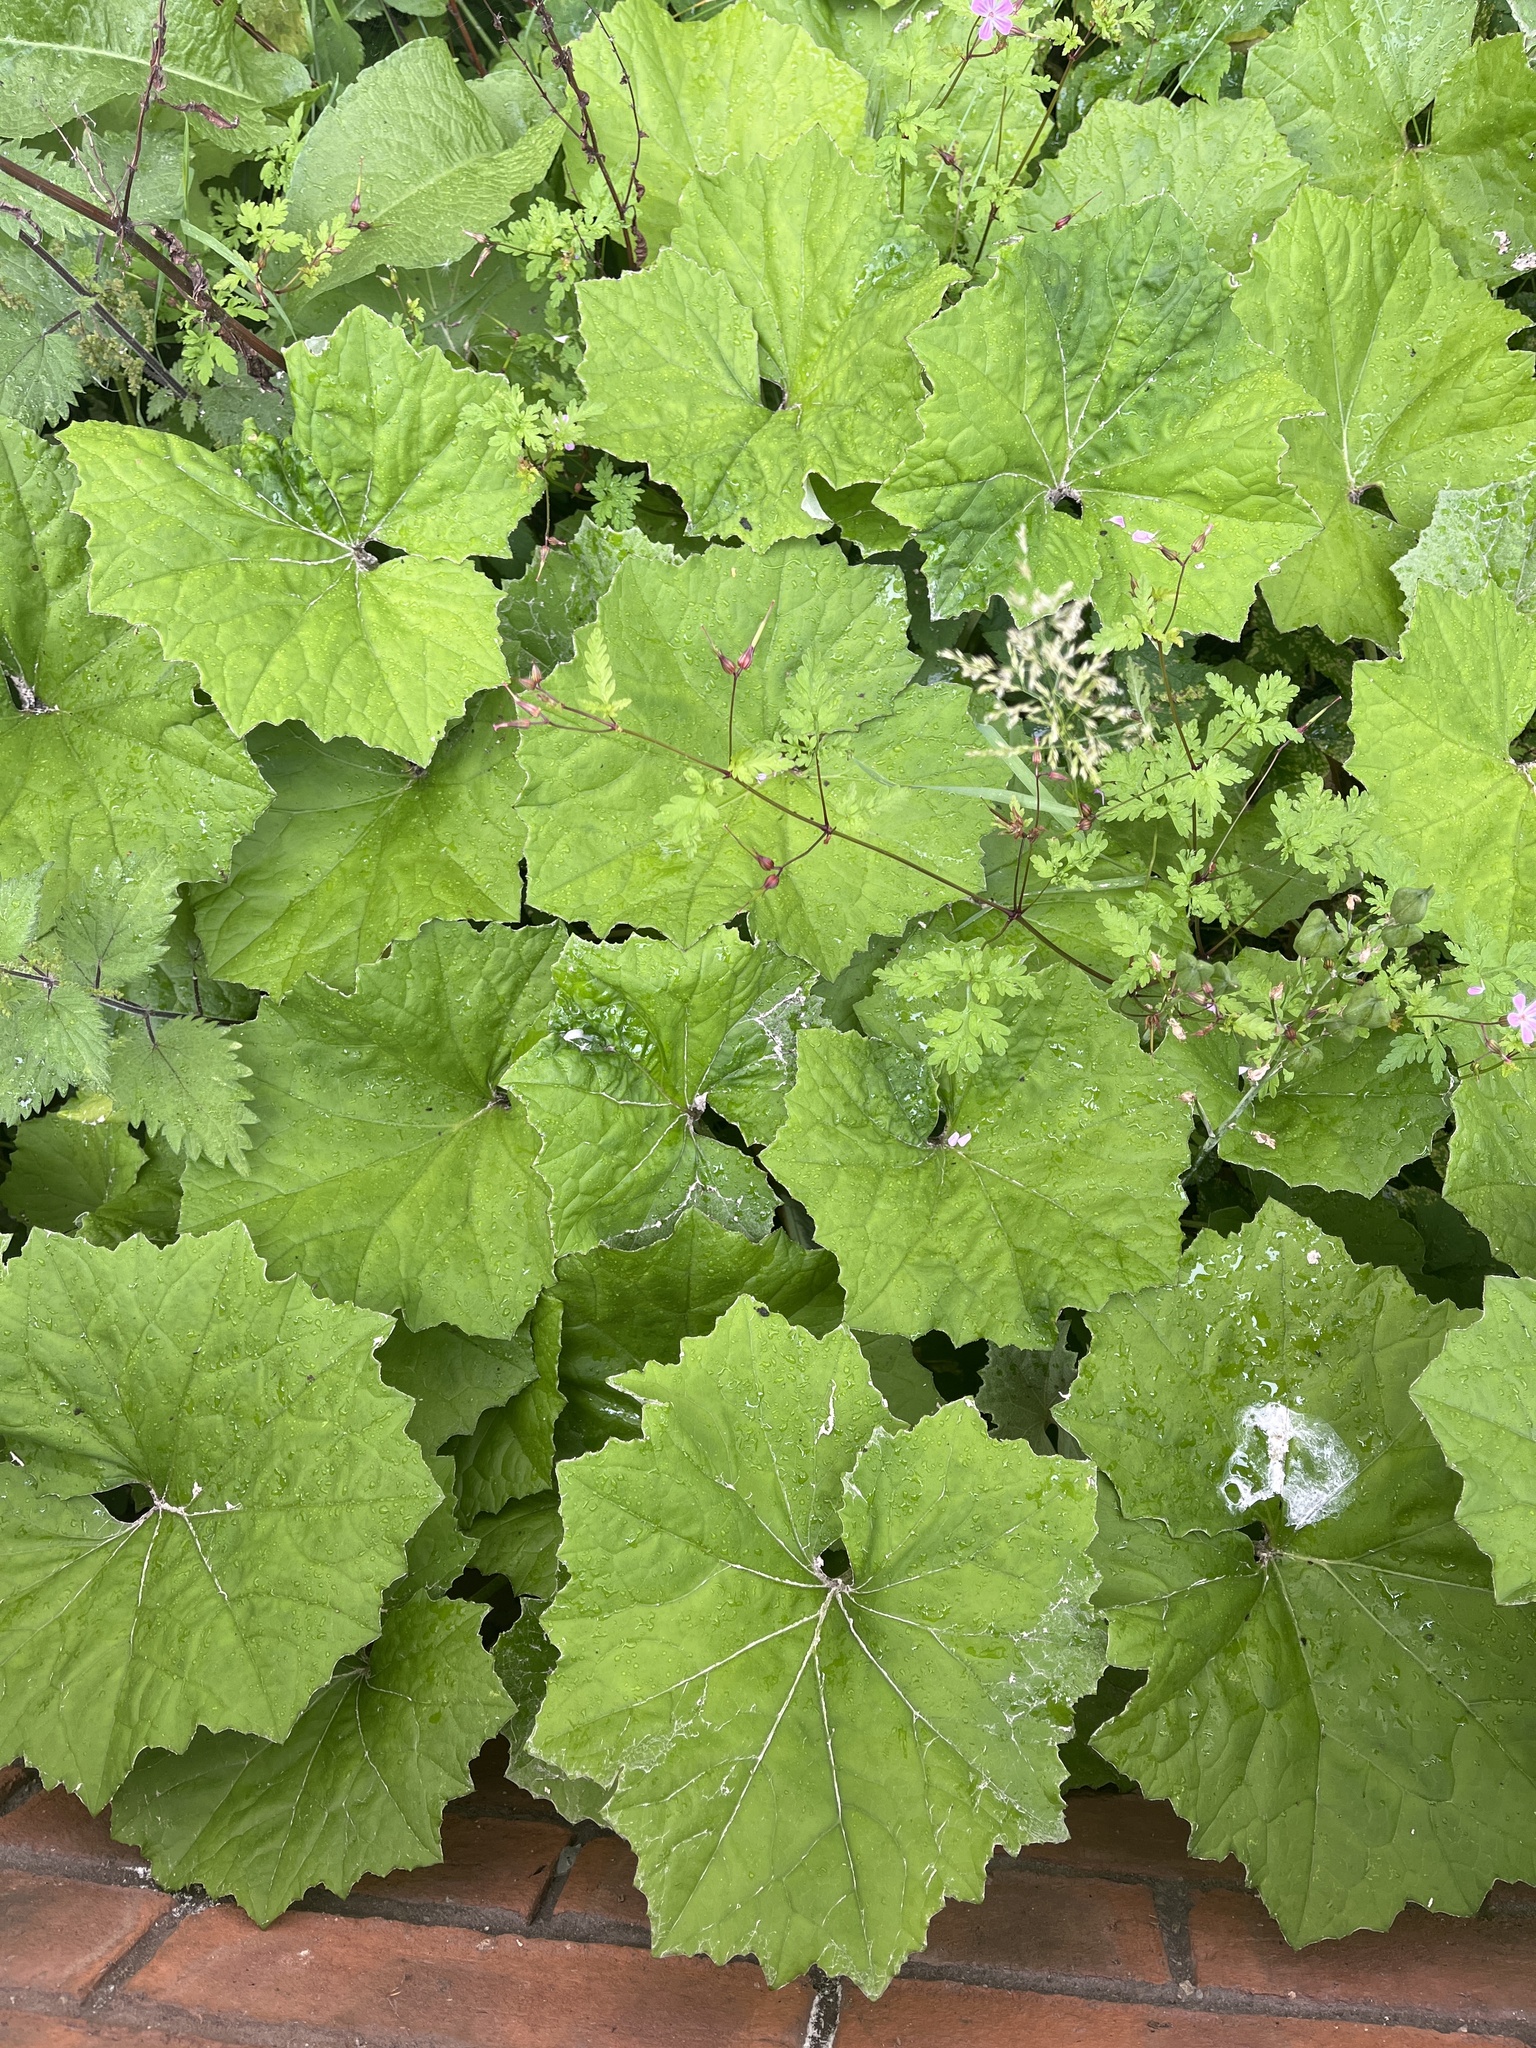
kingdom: Plantae
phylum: Tracheophyta
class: Magnoliopsida
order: Asterales
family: Asteraceae
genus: Tussilago
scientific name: Tussilago farfara
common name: Coltsfoot
